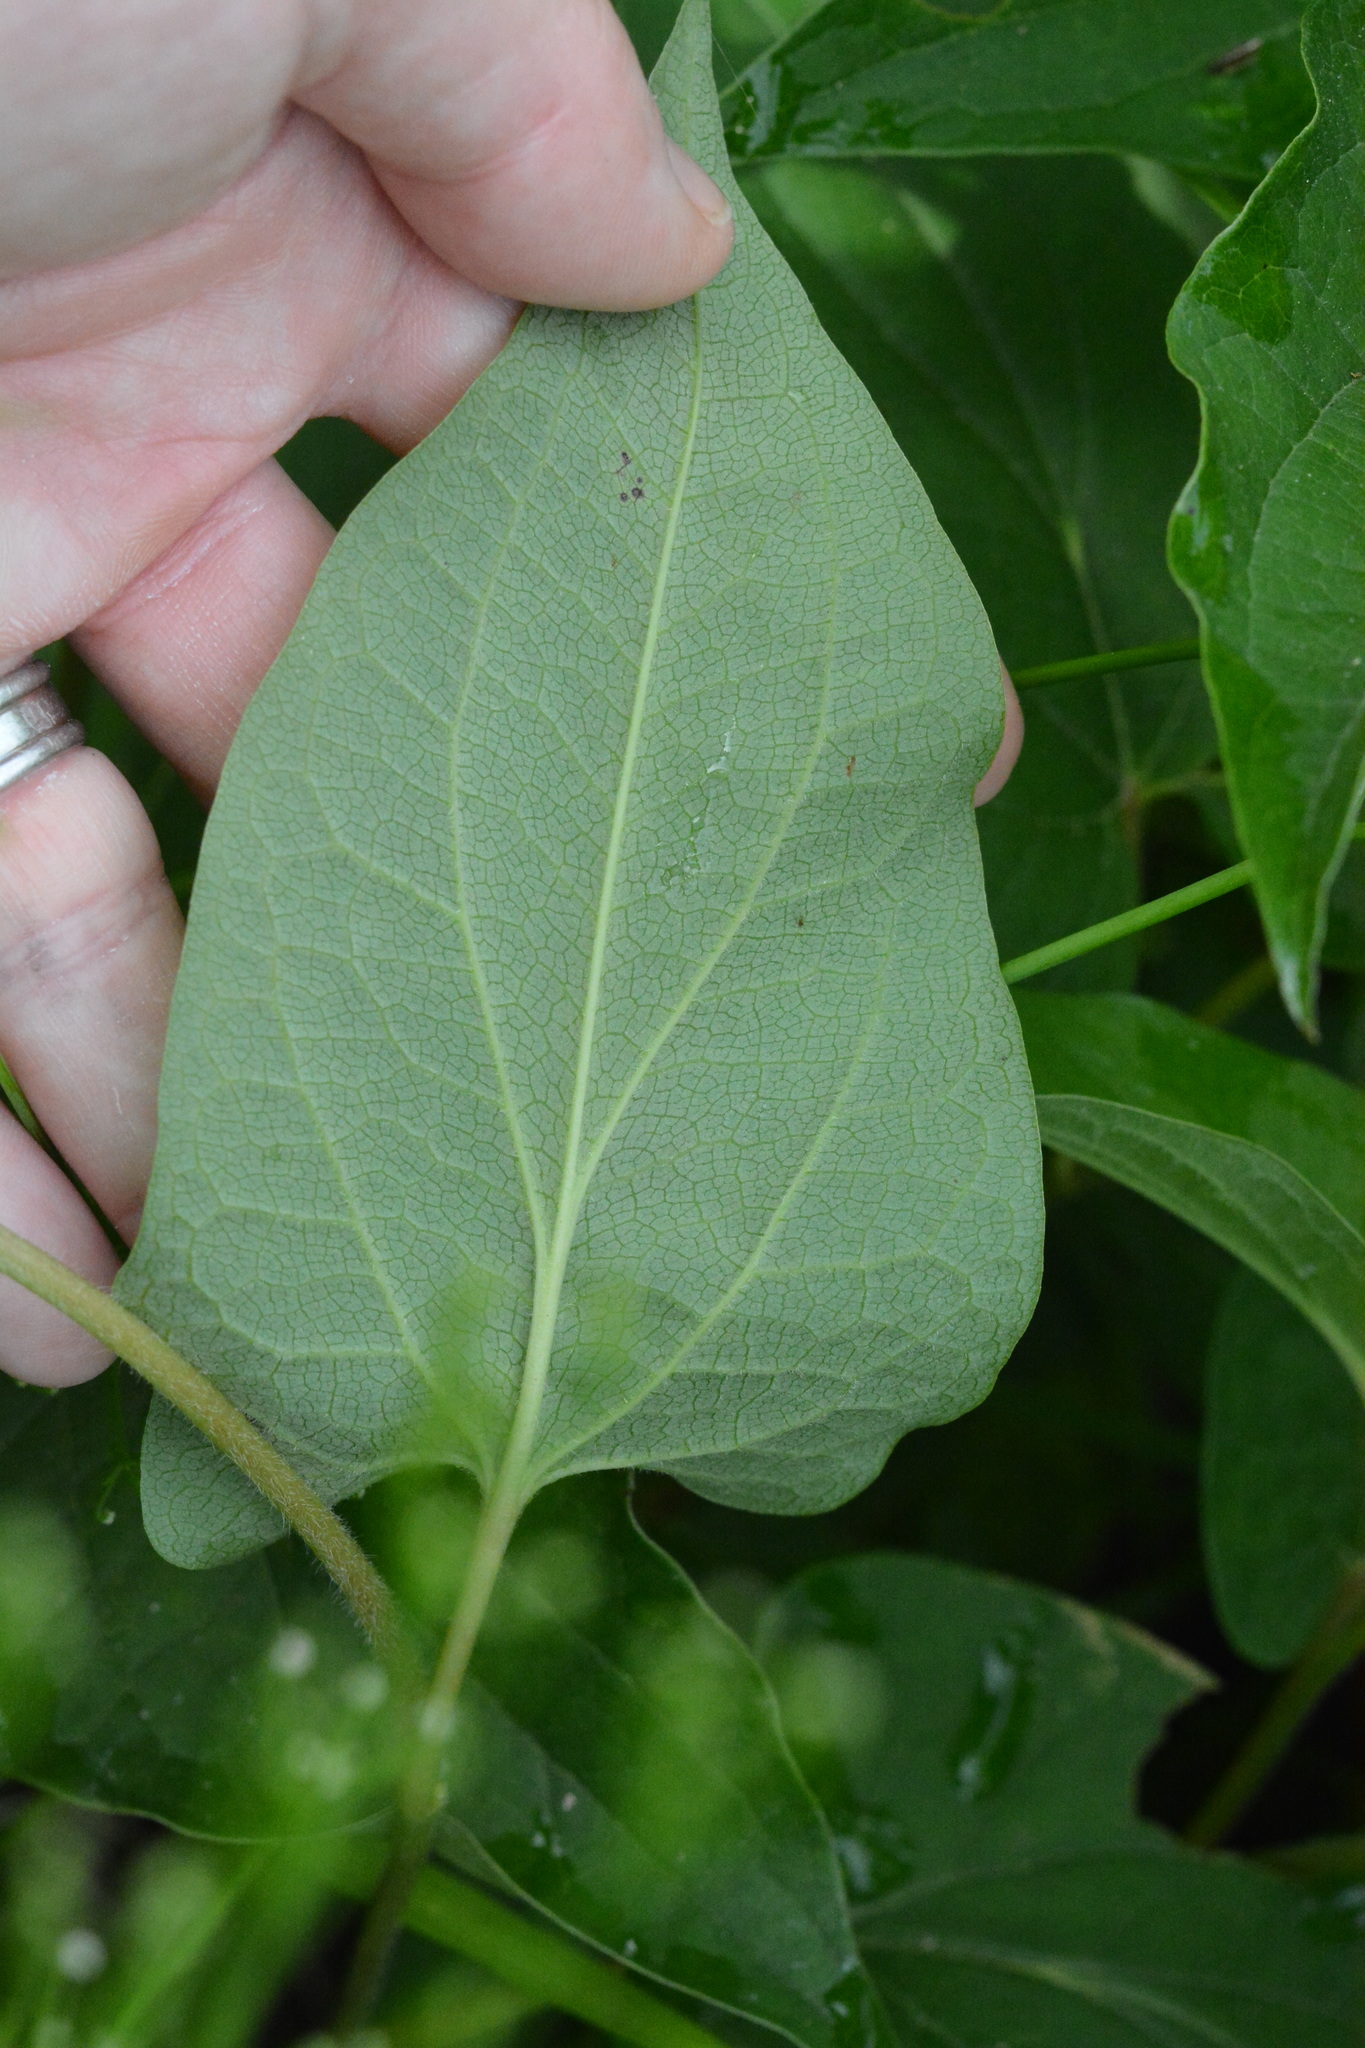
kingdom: Plantae
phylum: Tracheophyta
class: Magnoliopsida
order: Piperales
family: Saururaceae
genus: Saururus
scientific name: Saururus cernuus
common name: Lizard's-tail
